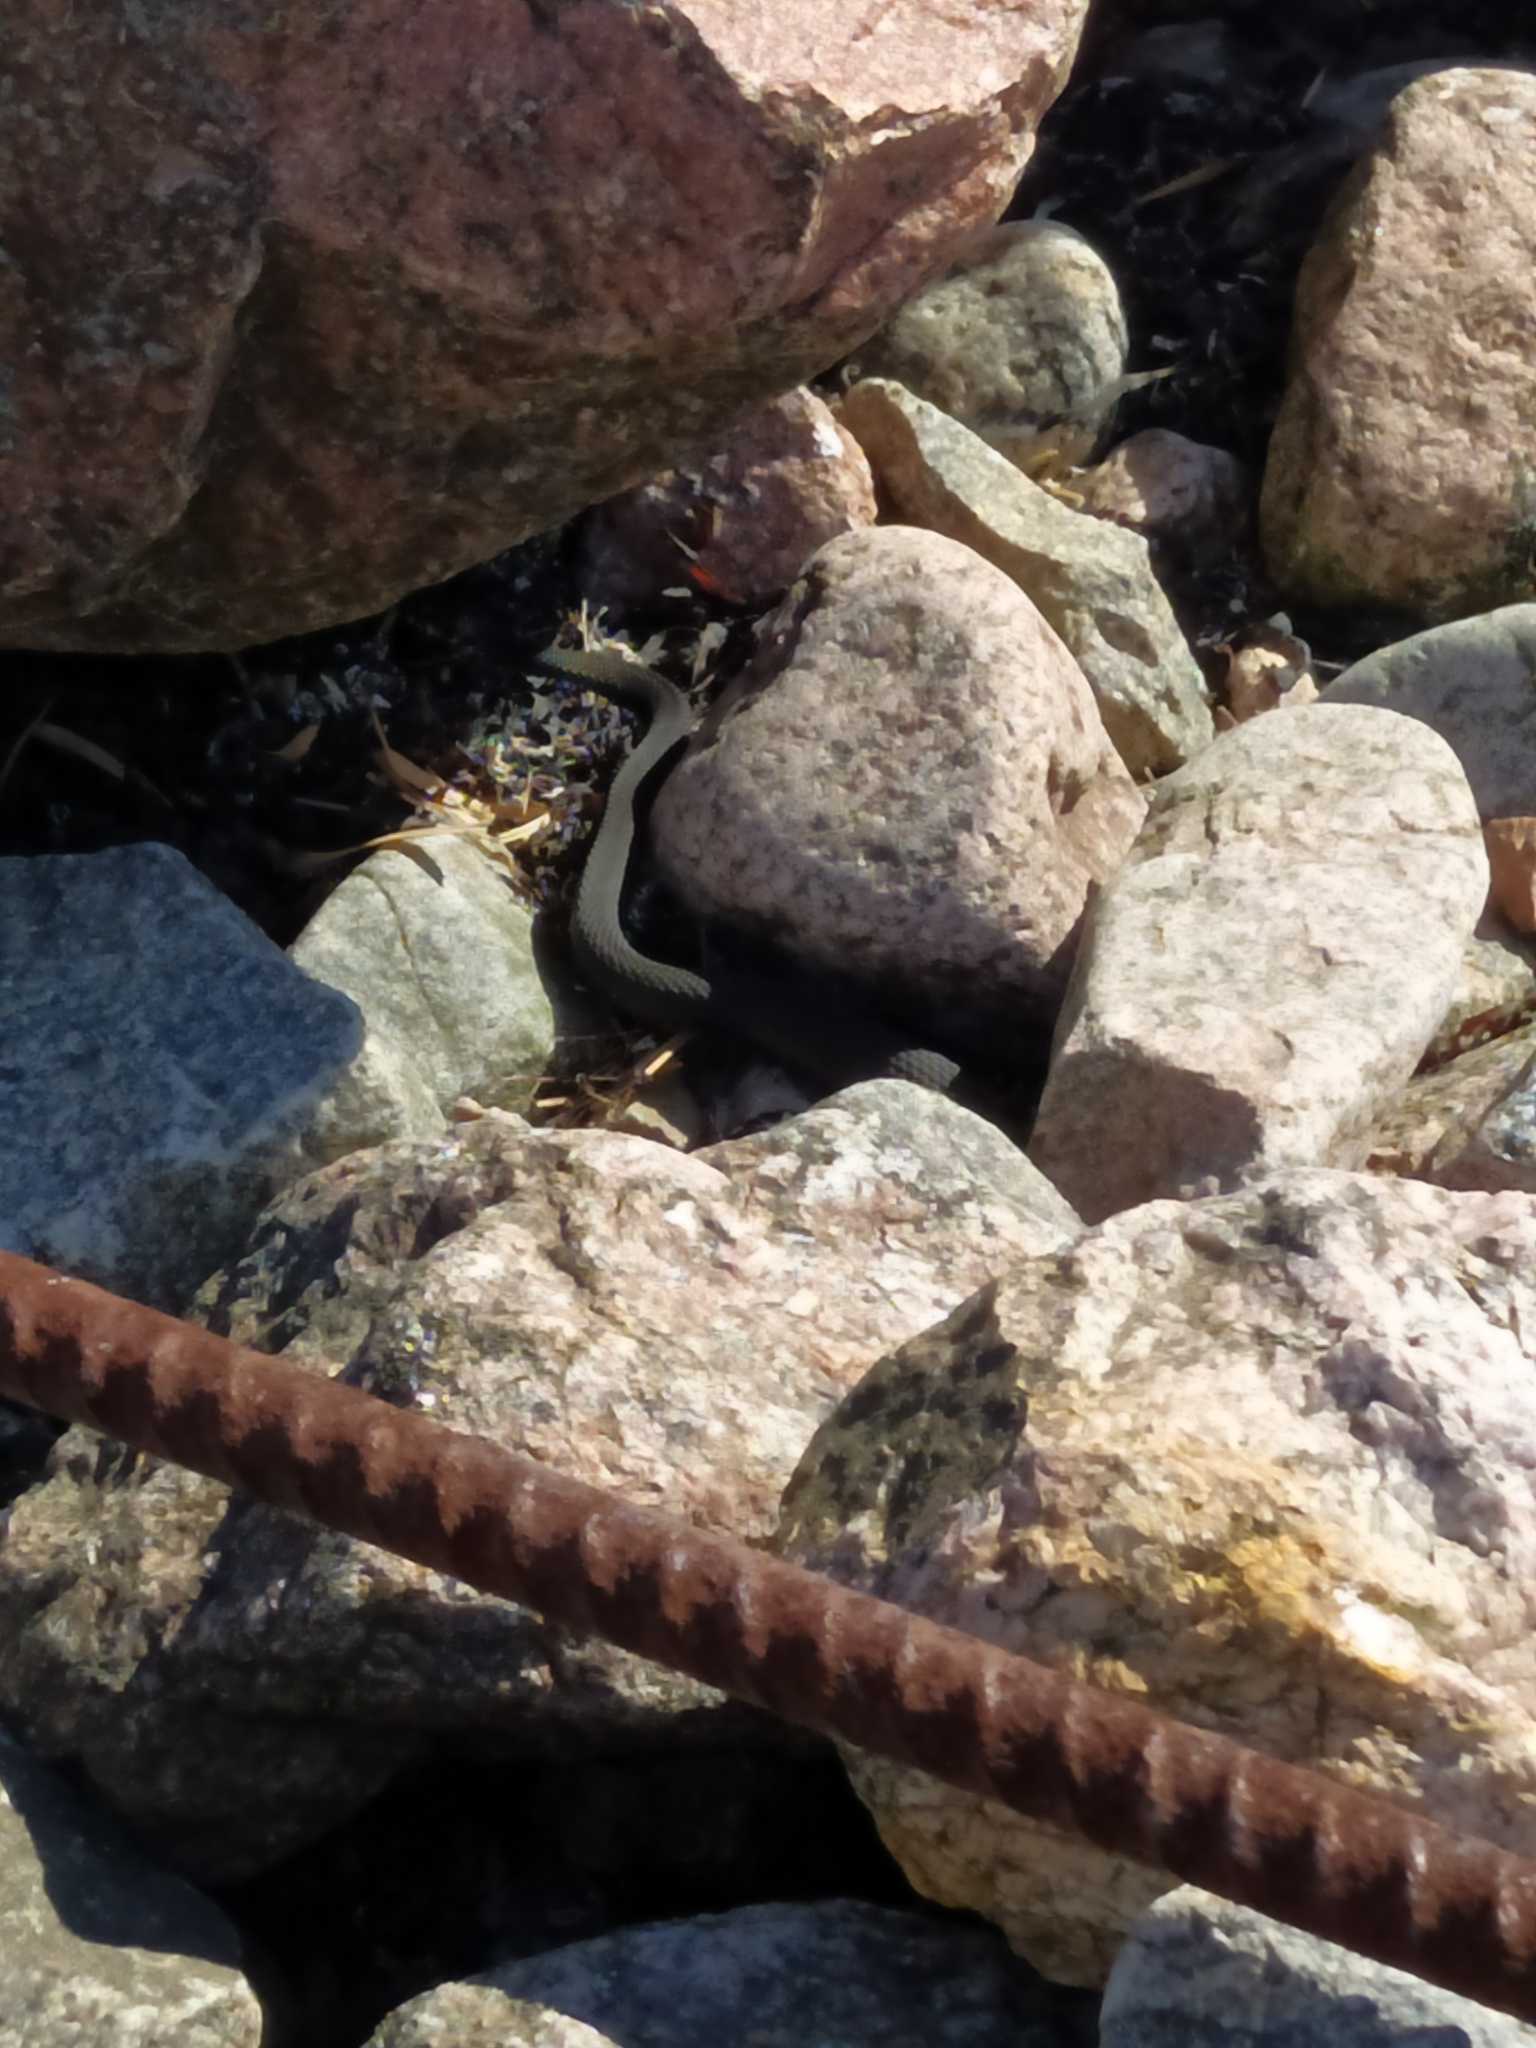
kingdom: Animalia
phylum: Chordata
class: Squamata
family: Colubridae
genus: Natrix
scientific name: Natrix natrix
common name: Grass snake
